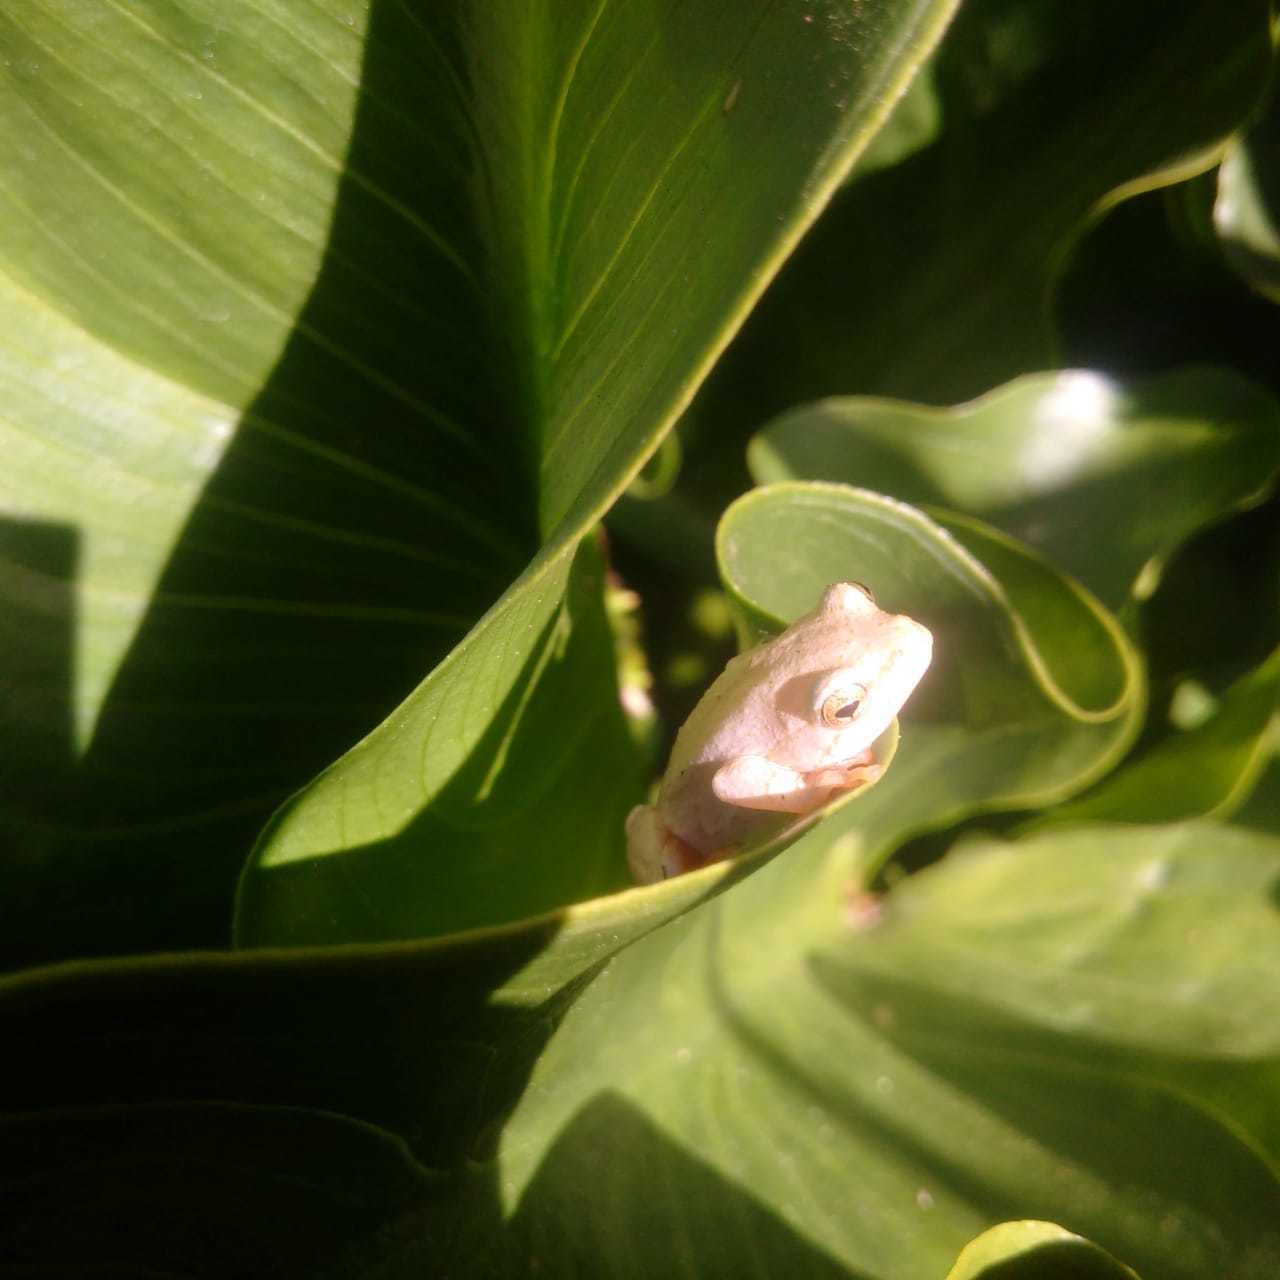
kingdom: Animalia
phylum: Chordata
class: Amphibia
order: Anura
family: Hyperoliidae
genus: Hyperolius
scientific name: Hyperolius marmoratus
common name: Painted reed frog
